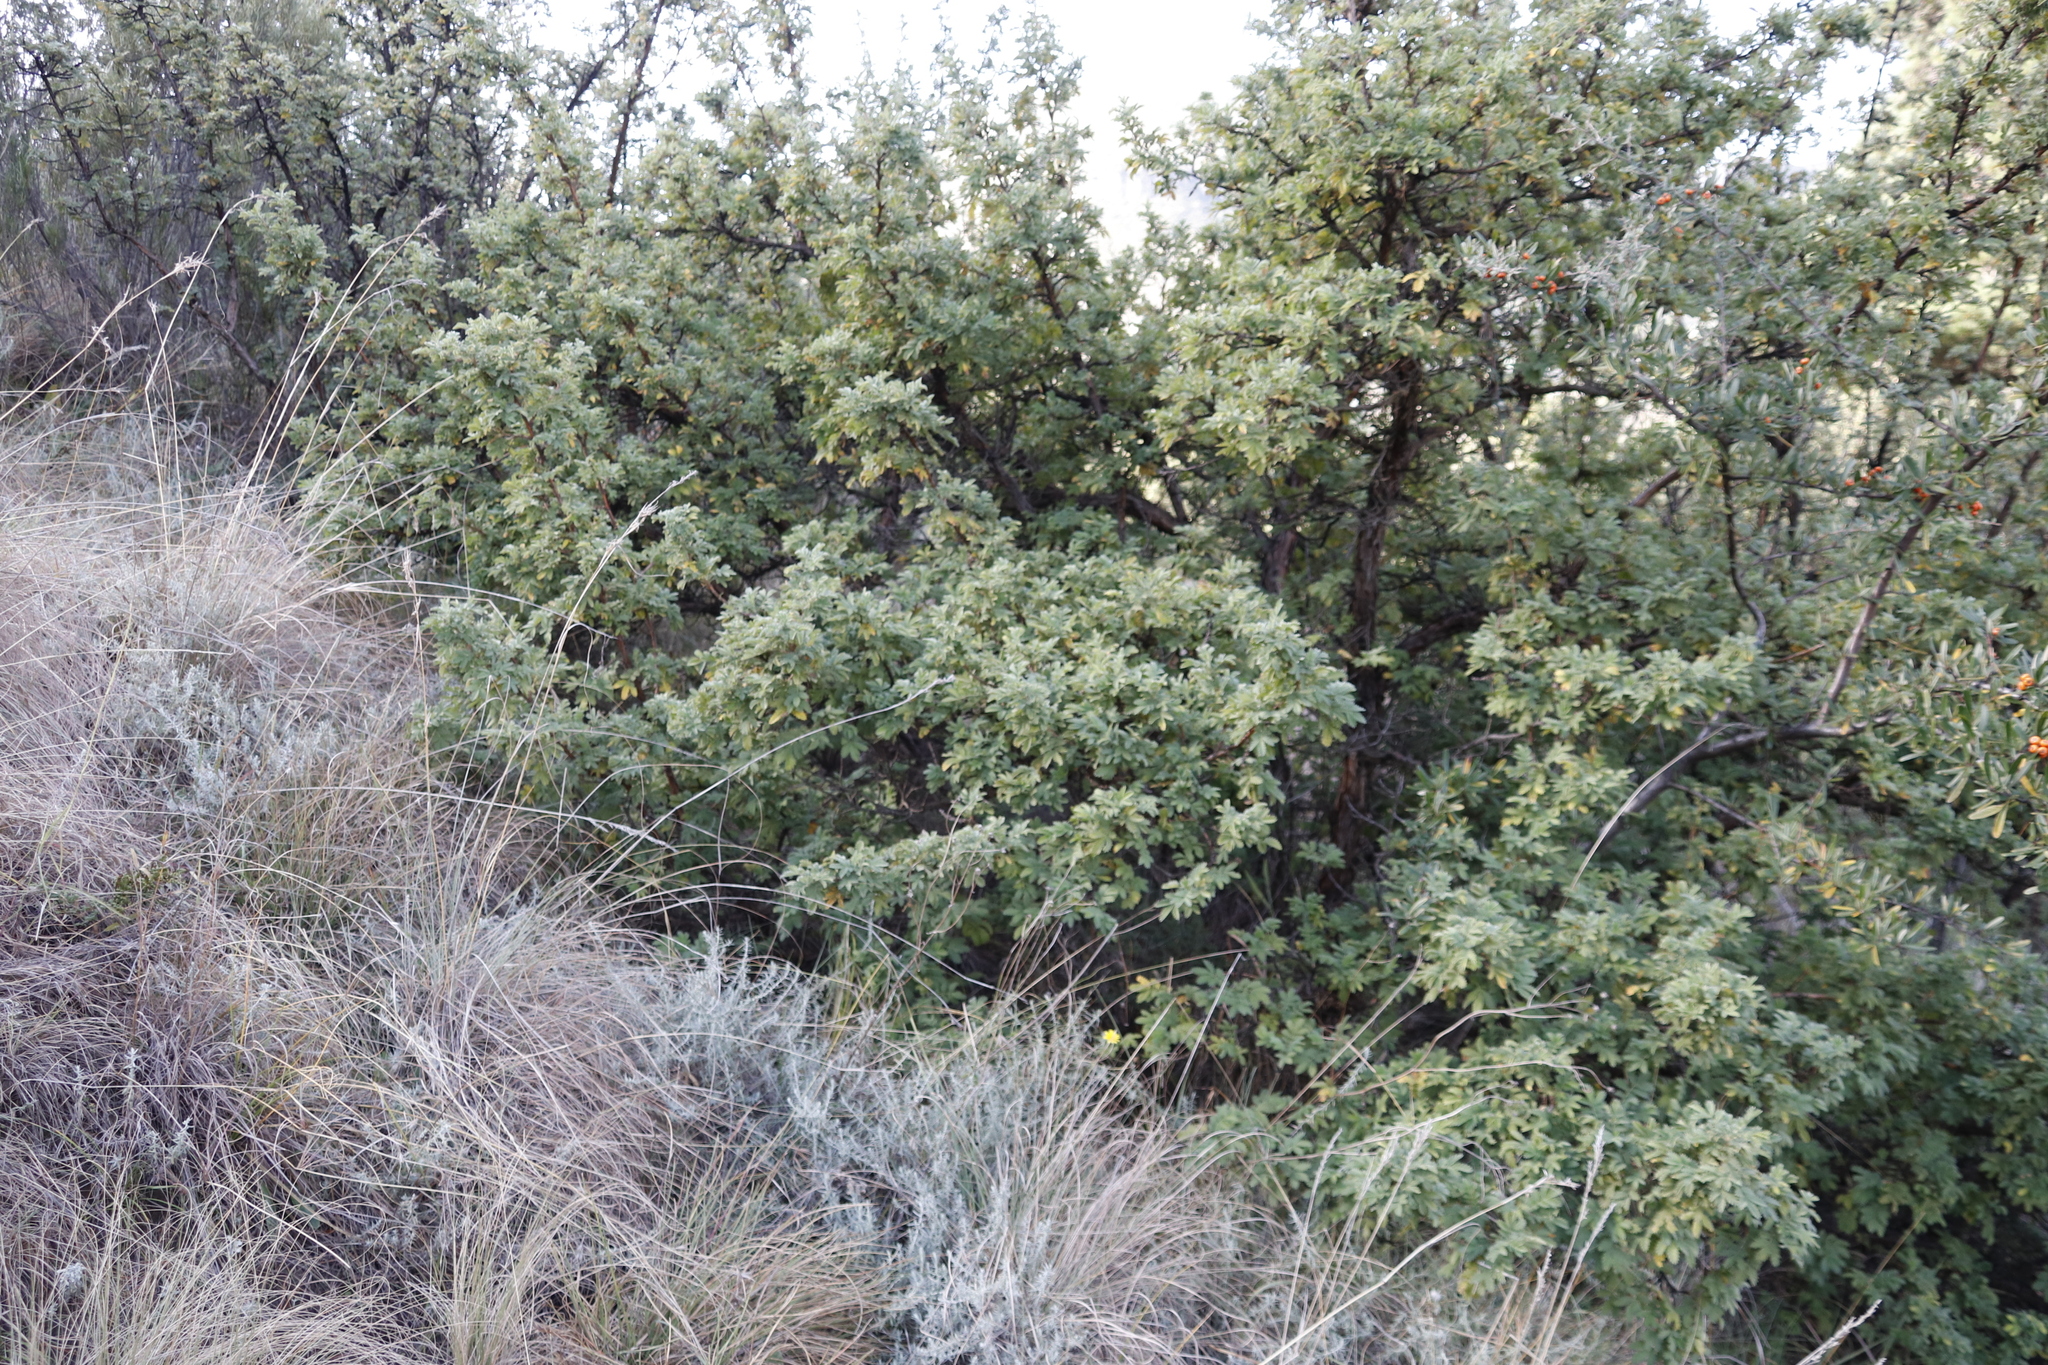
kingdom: Plantae
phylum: Tracheophyta
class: Magnoliopsida
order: Rosales
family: Rosaceae
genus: Leucosidea
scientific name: Leucosidea sericea
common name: Oldwood
